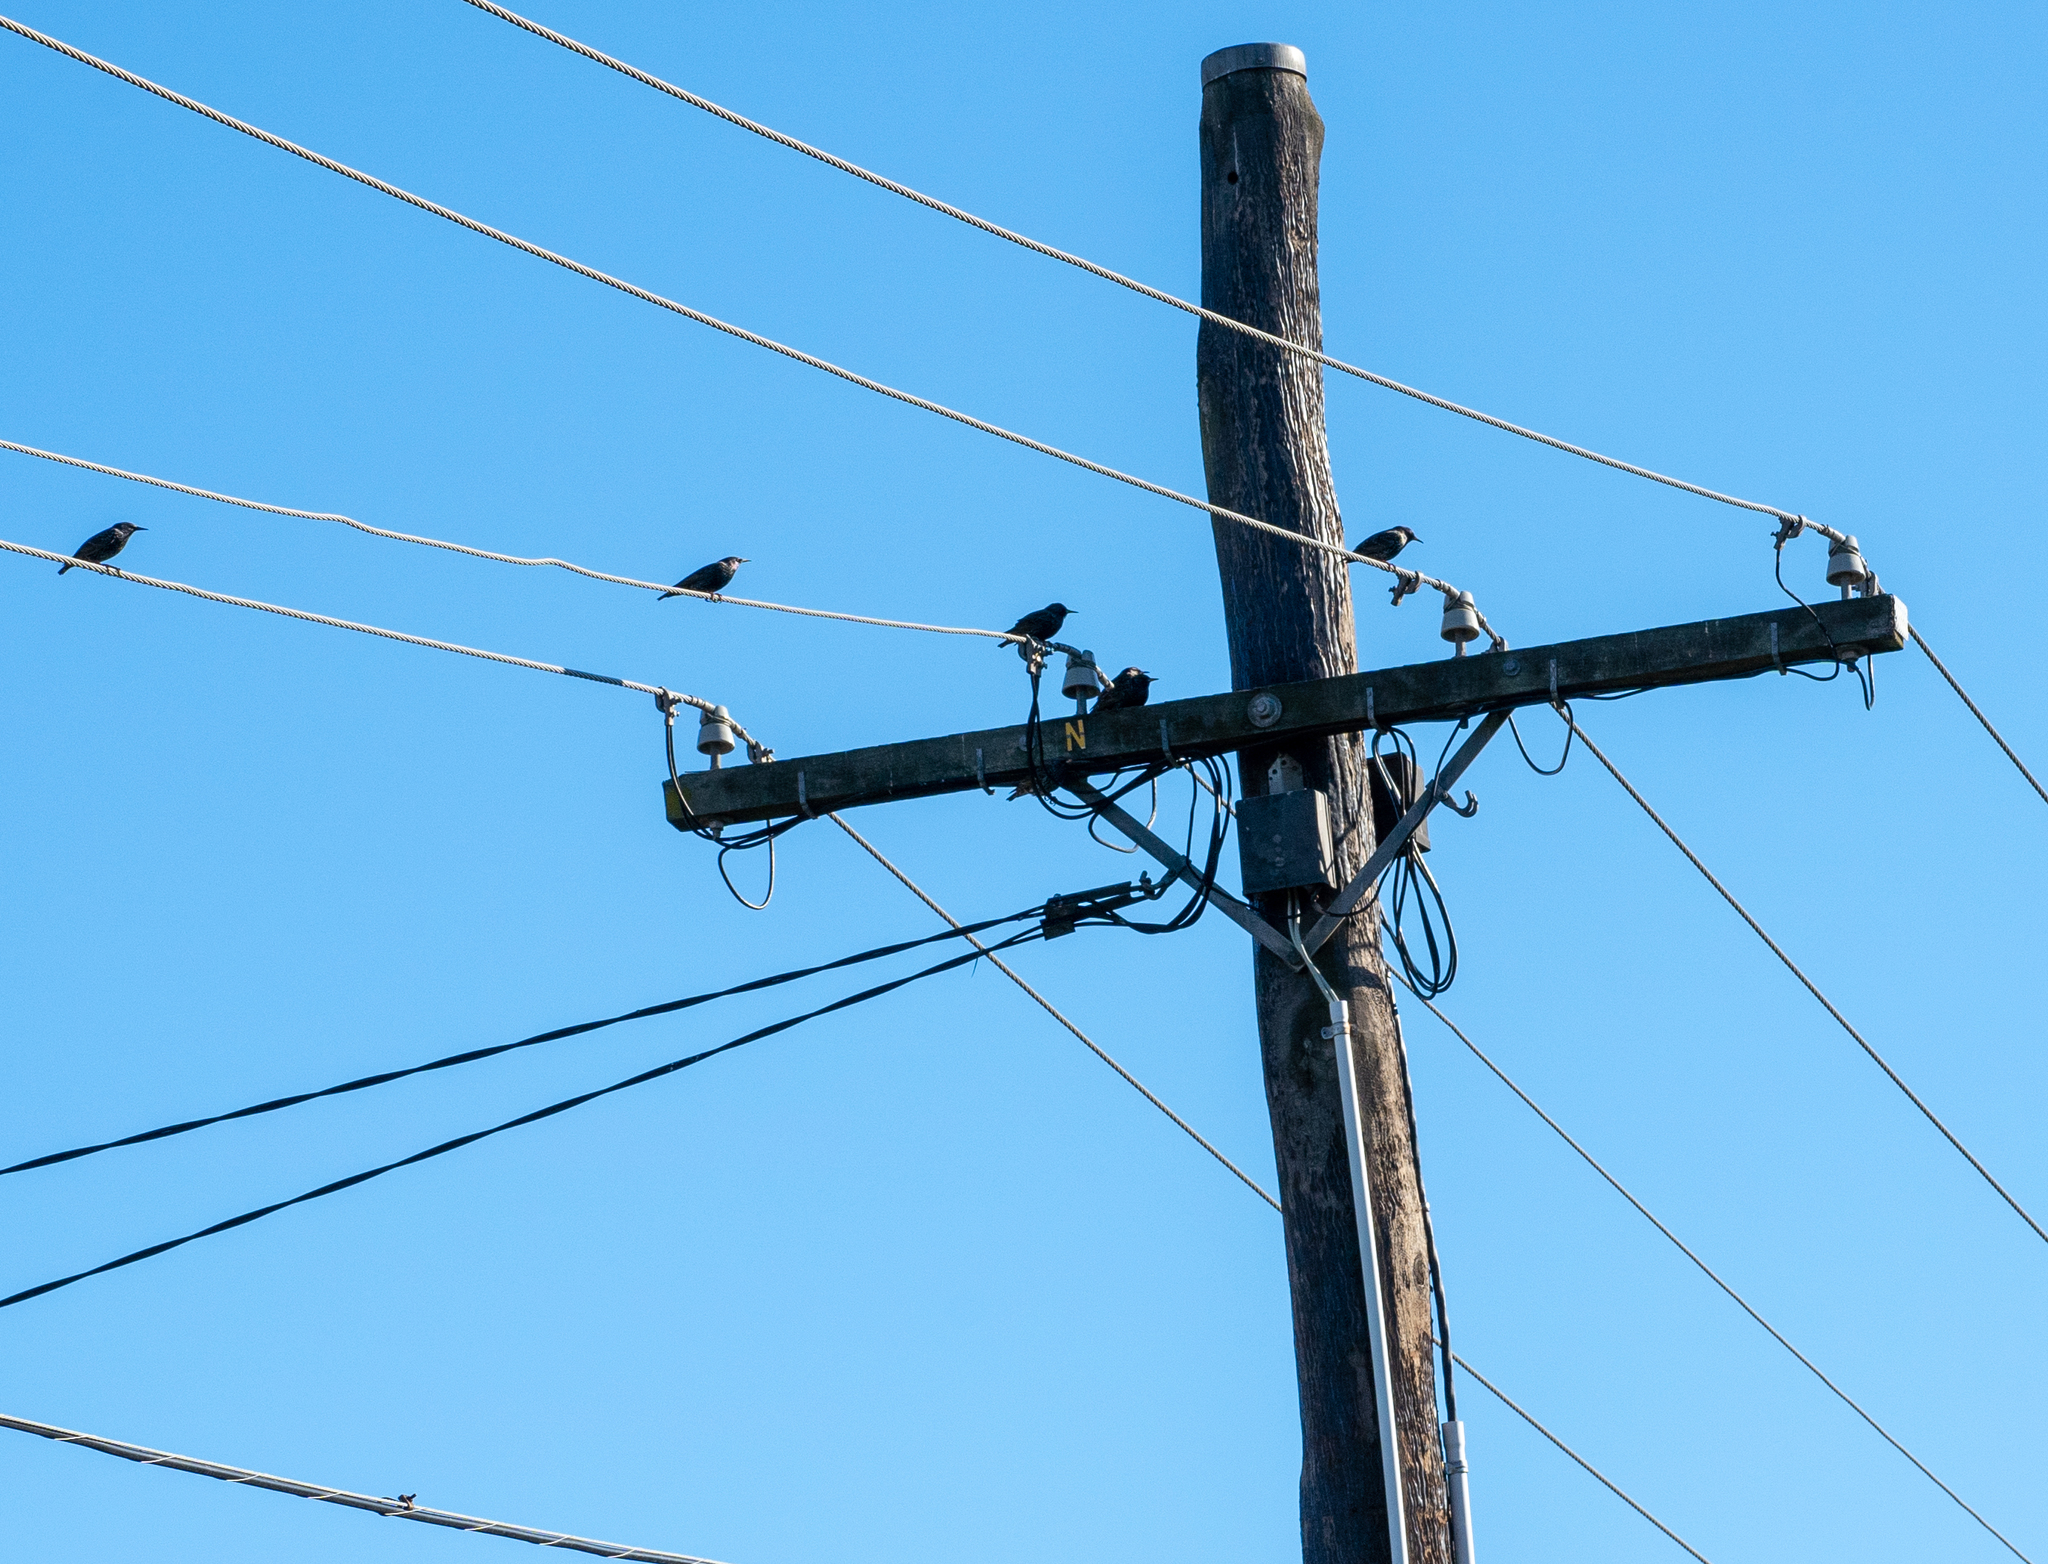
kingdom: Animalia
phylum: Chordata
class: Aves
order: Passeriformes
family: Sturnidae
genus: Sturnus
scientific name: Sturnus vulgaris
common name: Common starling
